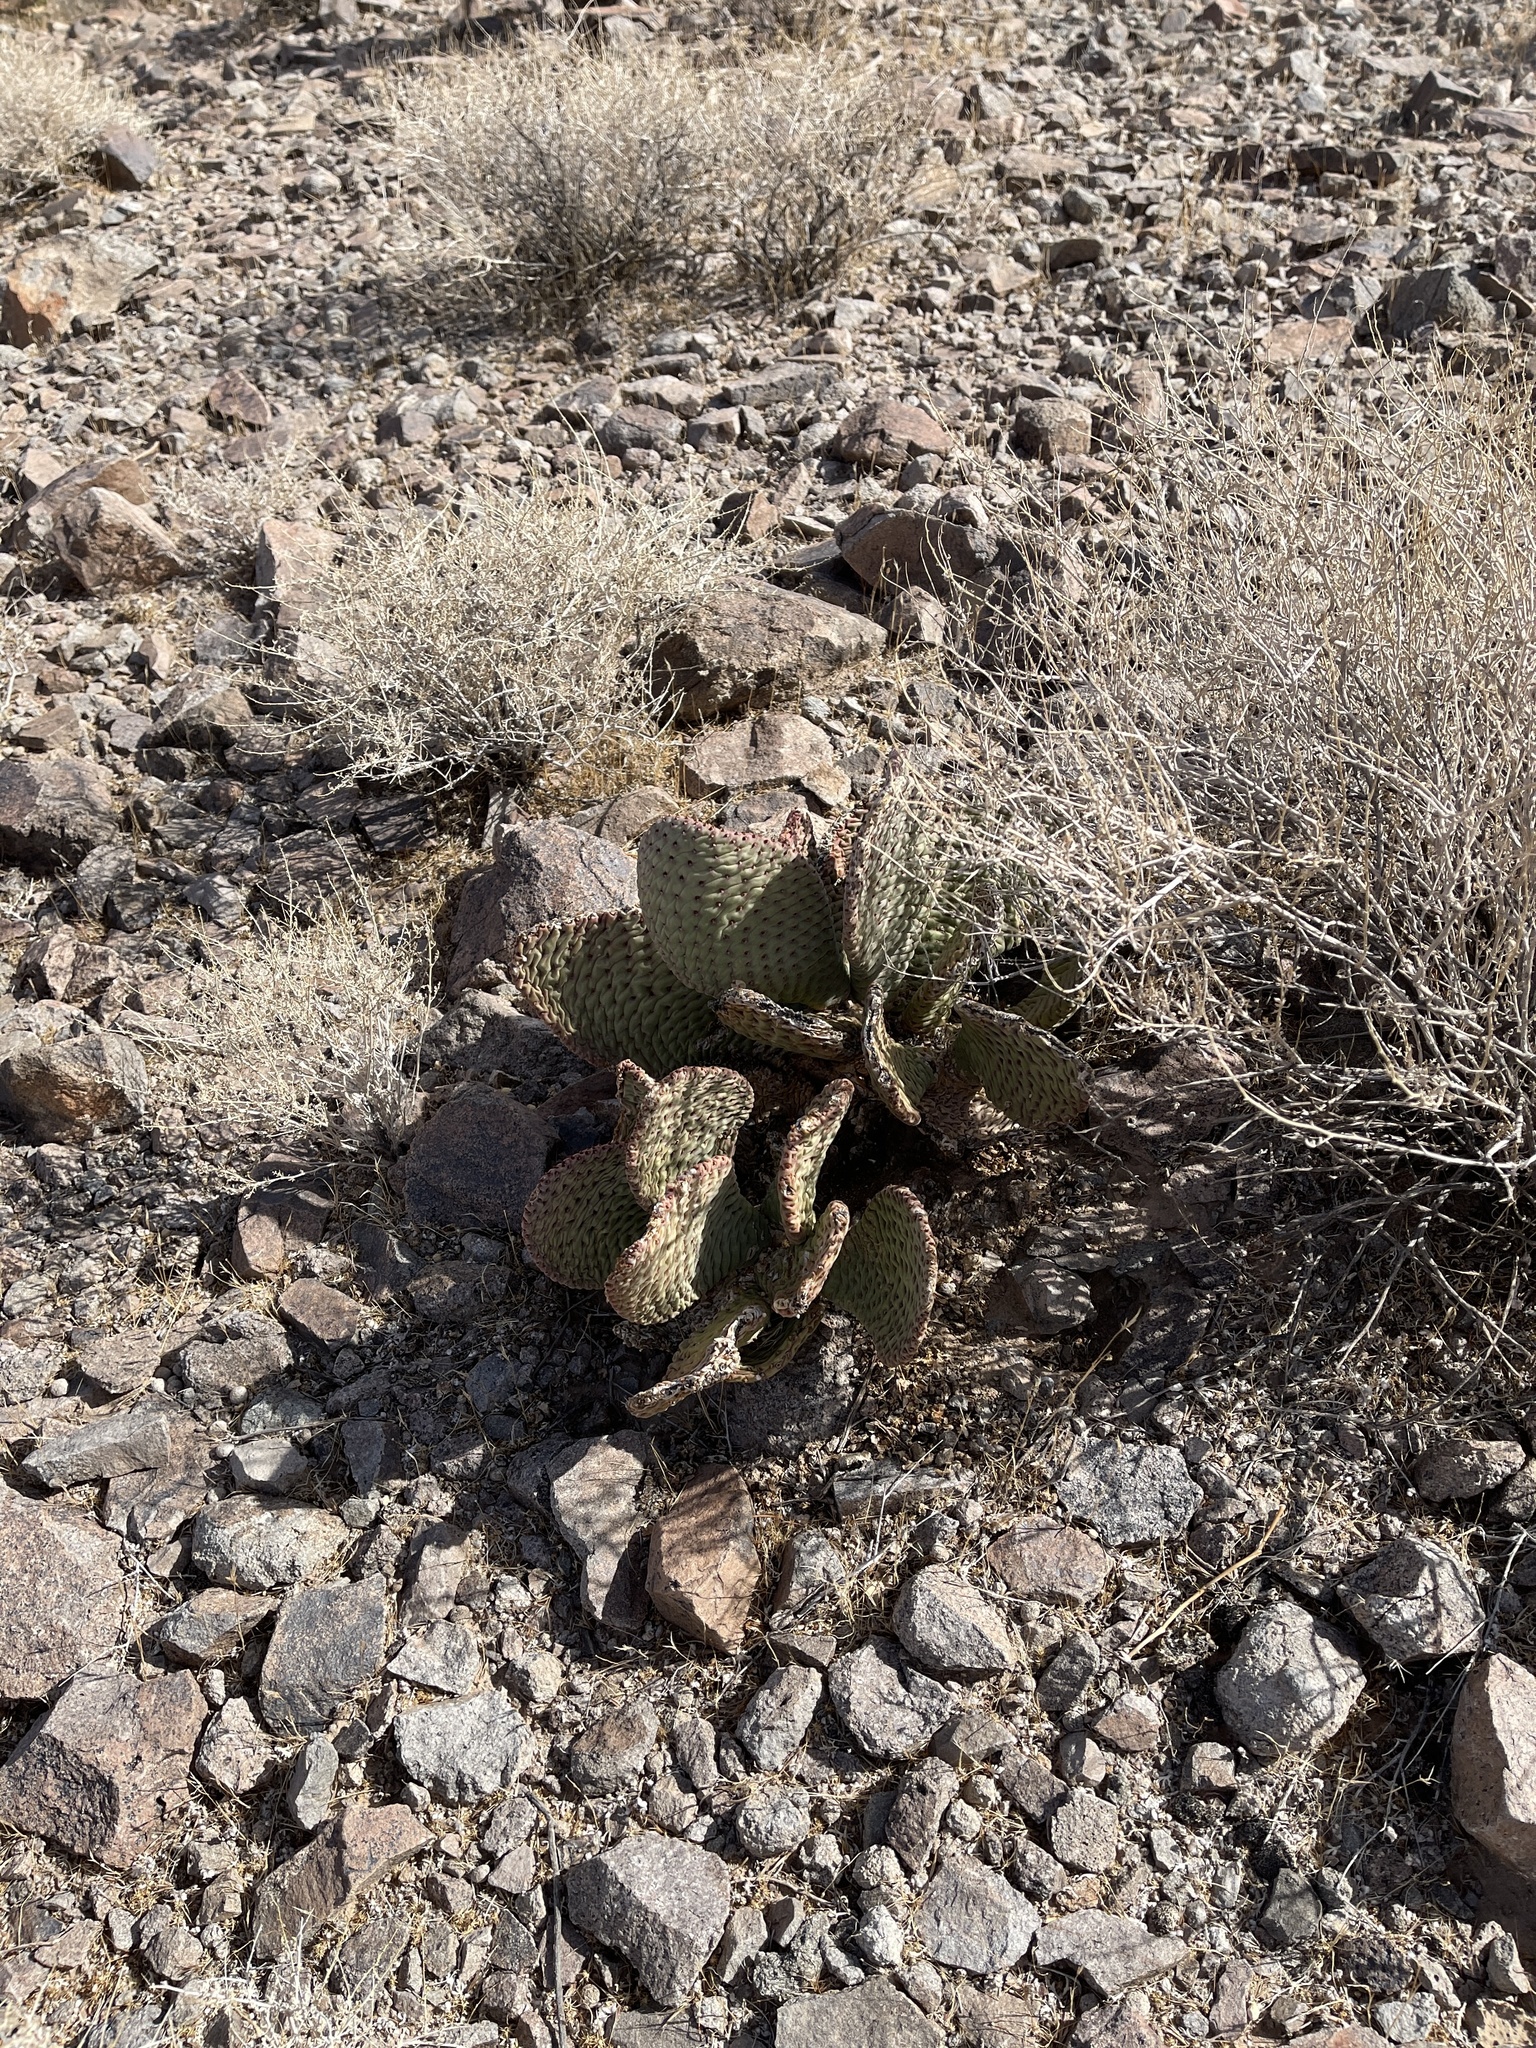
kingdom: Plantae
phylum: Tracheophyta
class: Magnoliopsida
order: Caryophyllales
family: Cactaceae
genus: Opuntia
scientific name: Opuntia basilaris
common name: Beavertail prickly-pear
